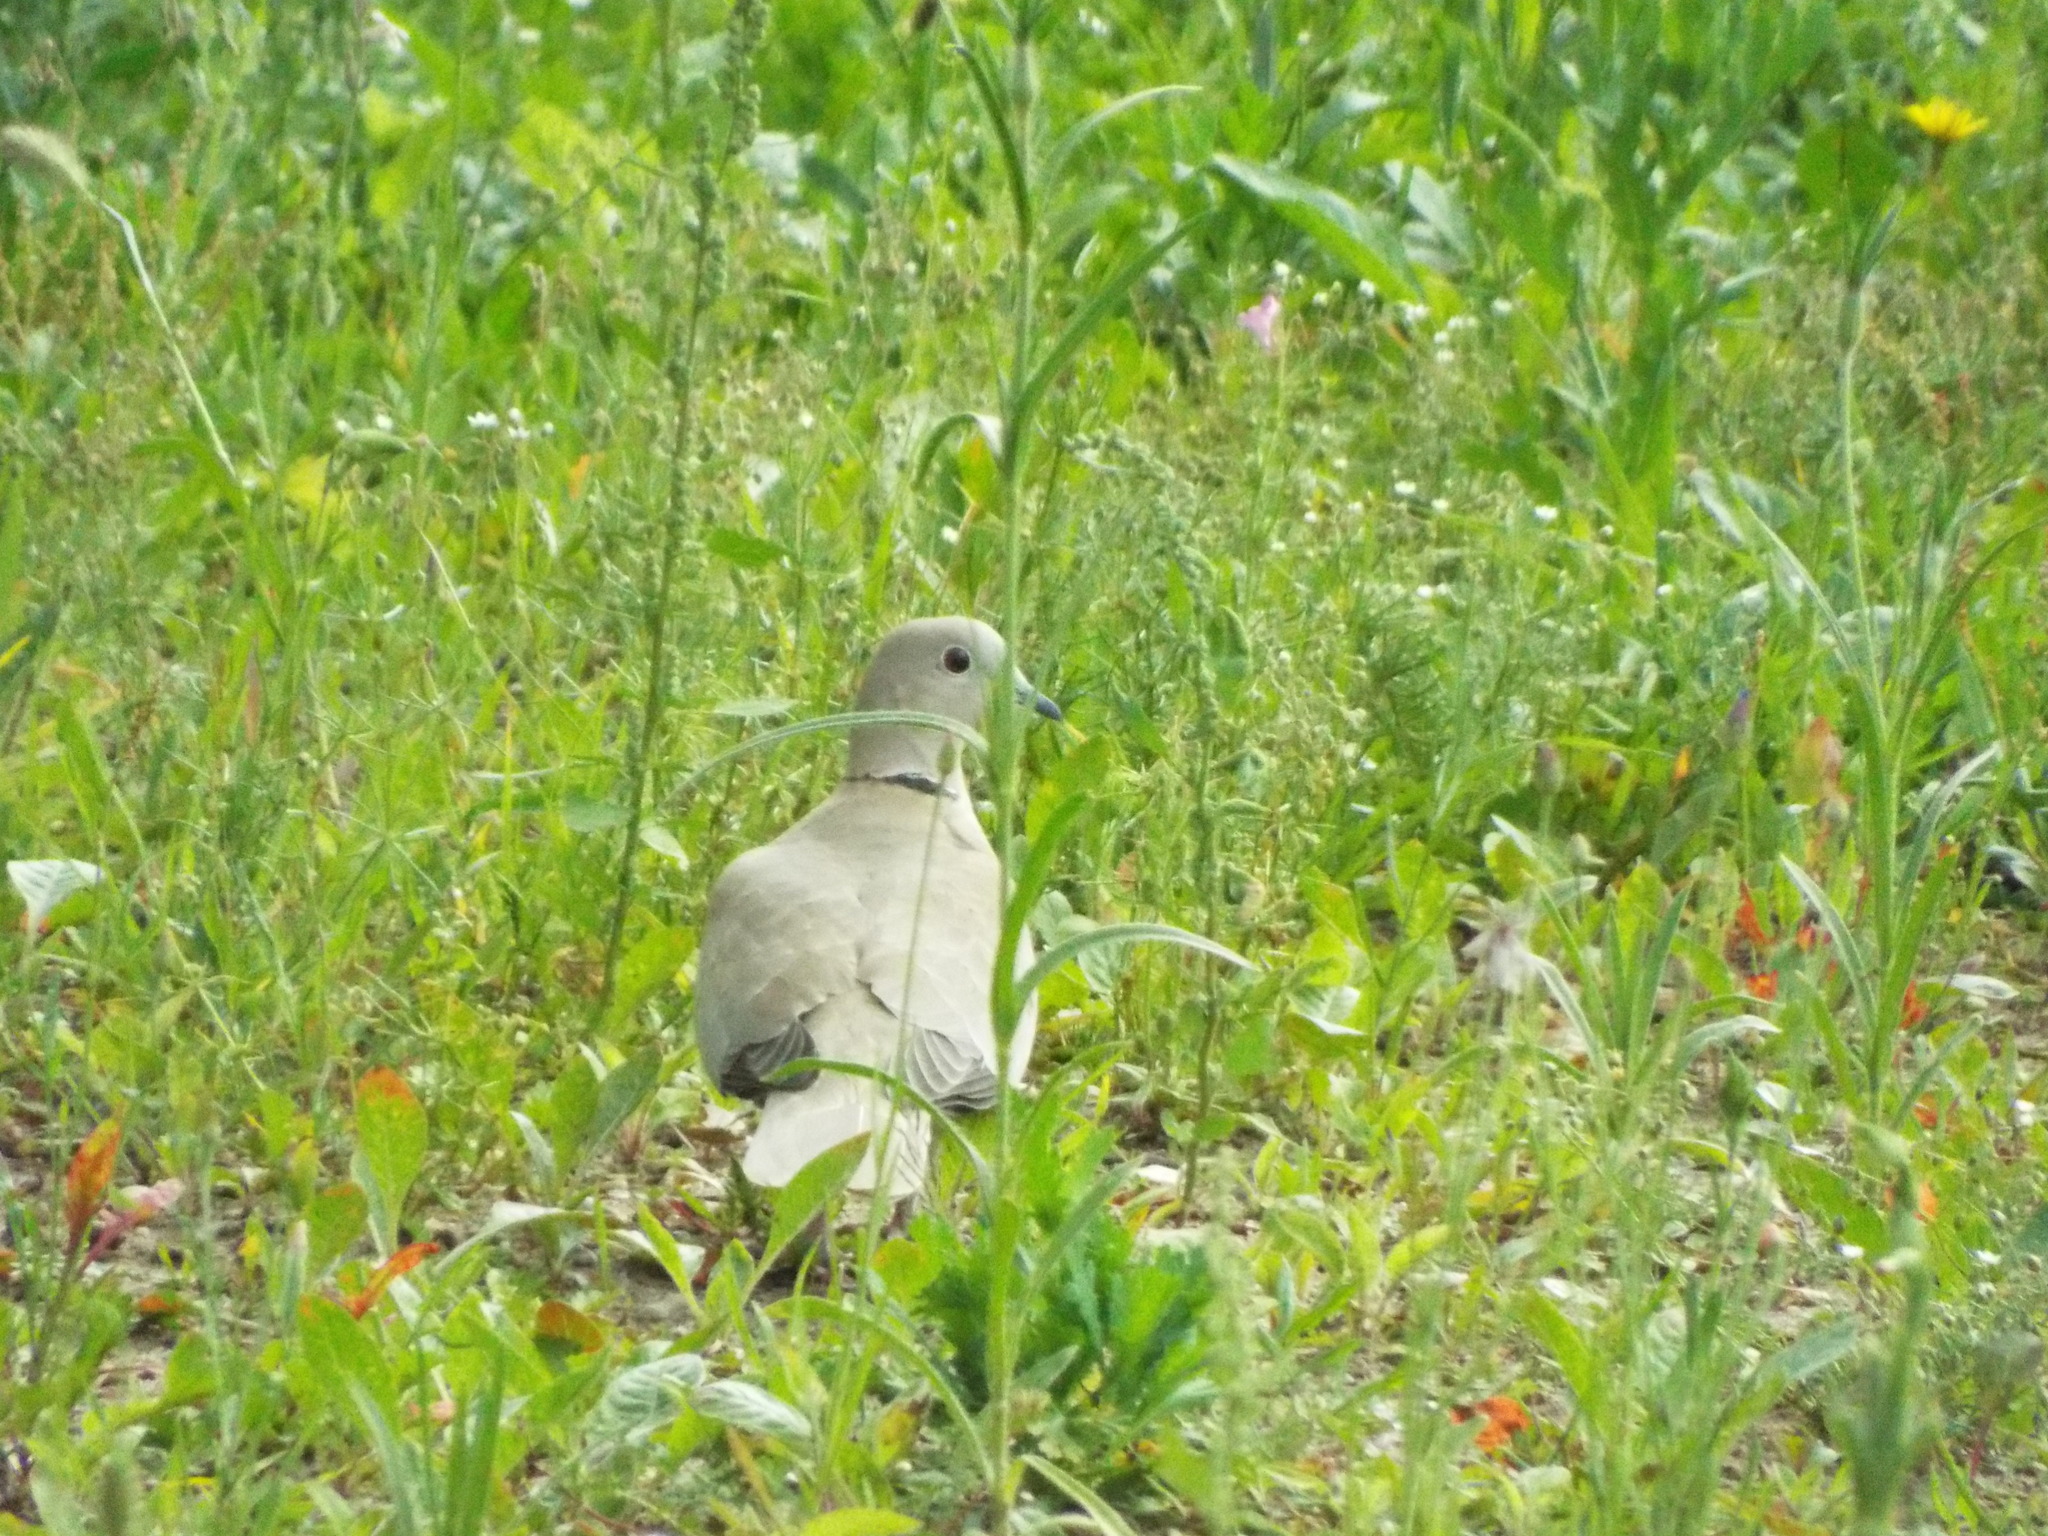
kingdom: Animalia
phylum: Chordata
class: Aves
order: Columbiformes
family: Columbidae
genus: Streptopelia
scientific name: Streptopelia decaocto
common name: Eurasian collared dove
